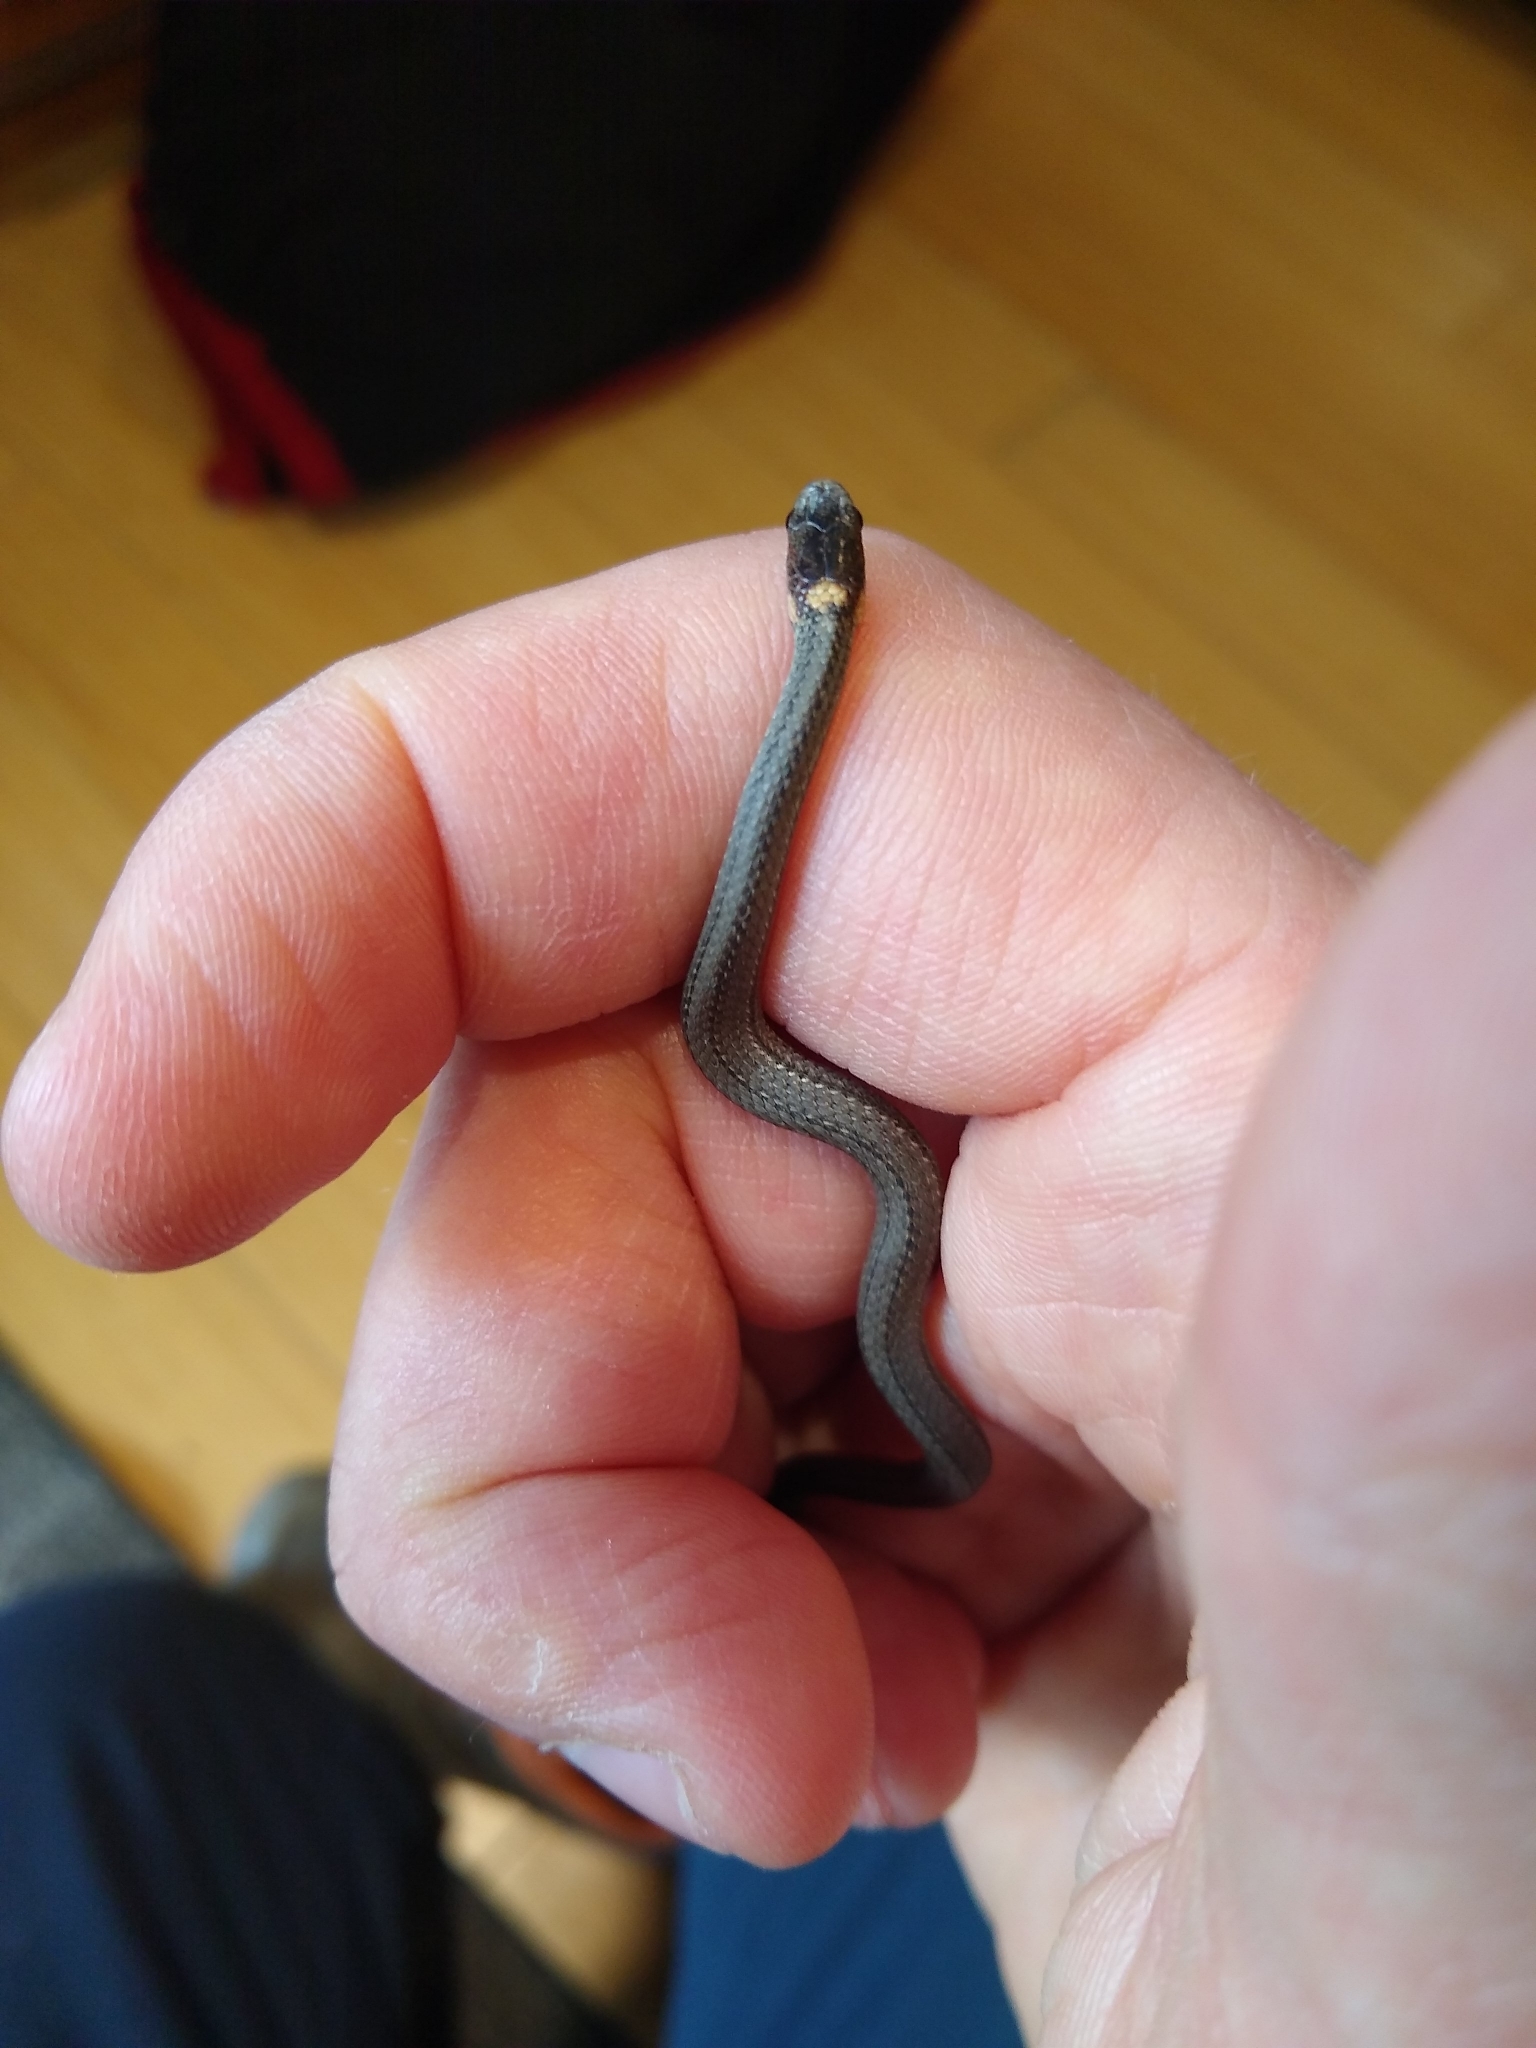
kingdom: Animalia
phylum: Chordata
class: Squamata
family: Colubridae
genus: Storeria
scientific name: Storeria occipitomaculata
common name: Redbelly snake
